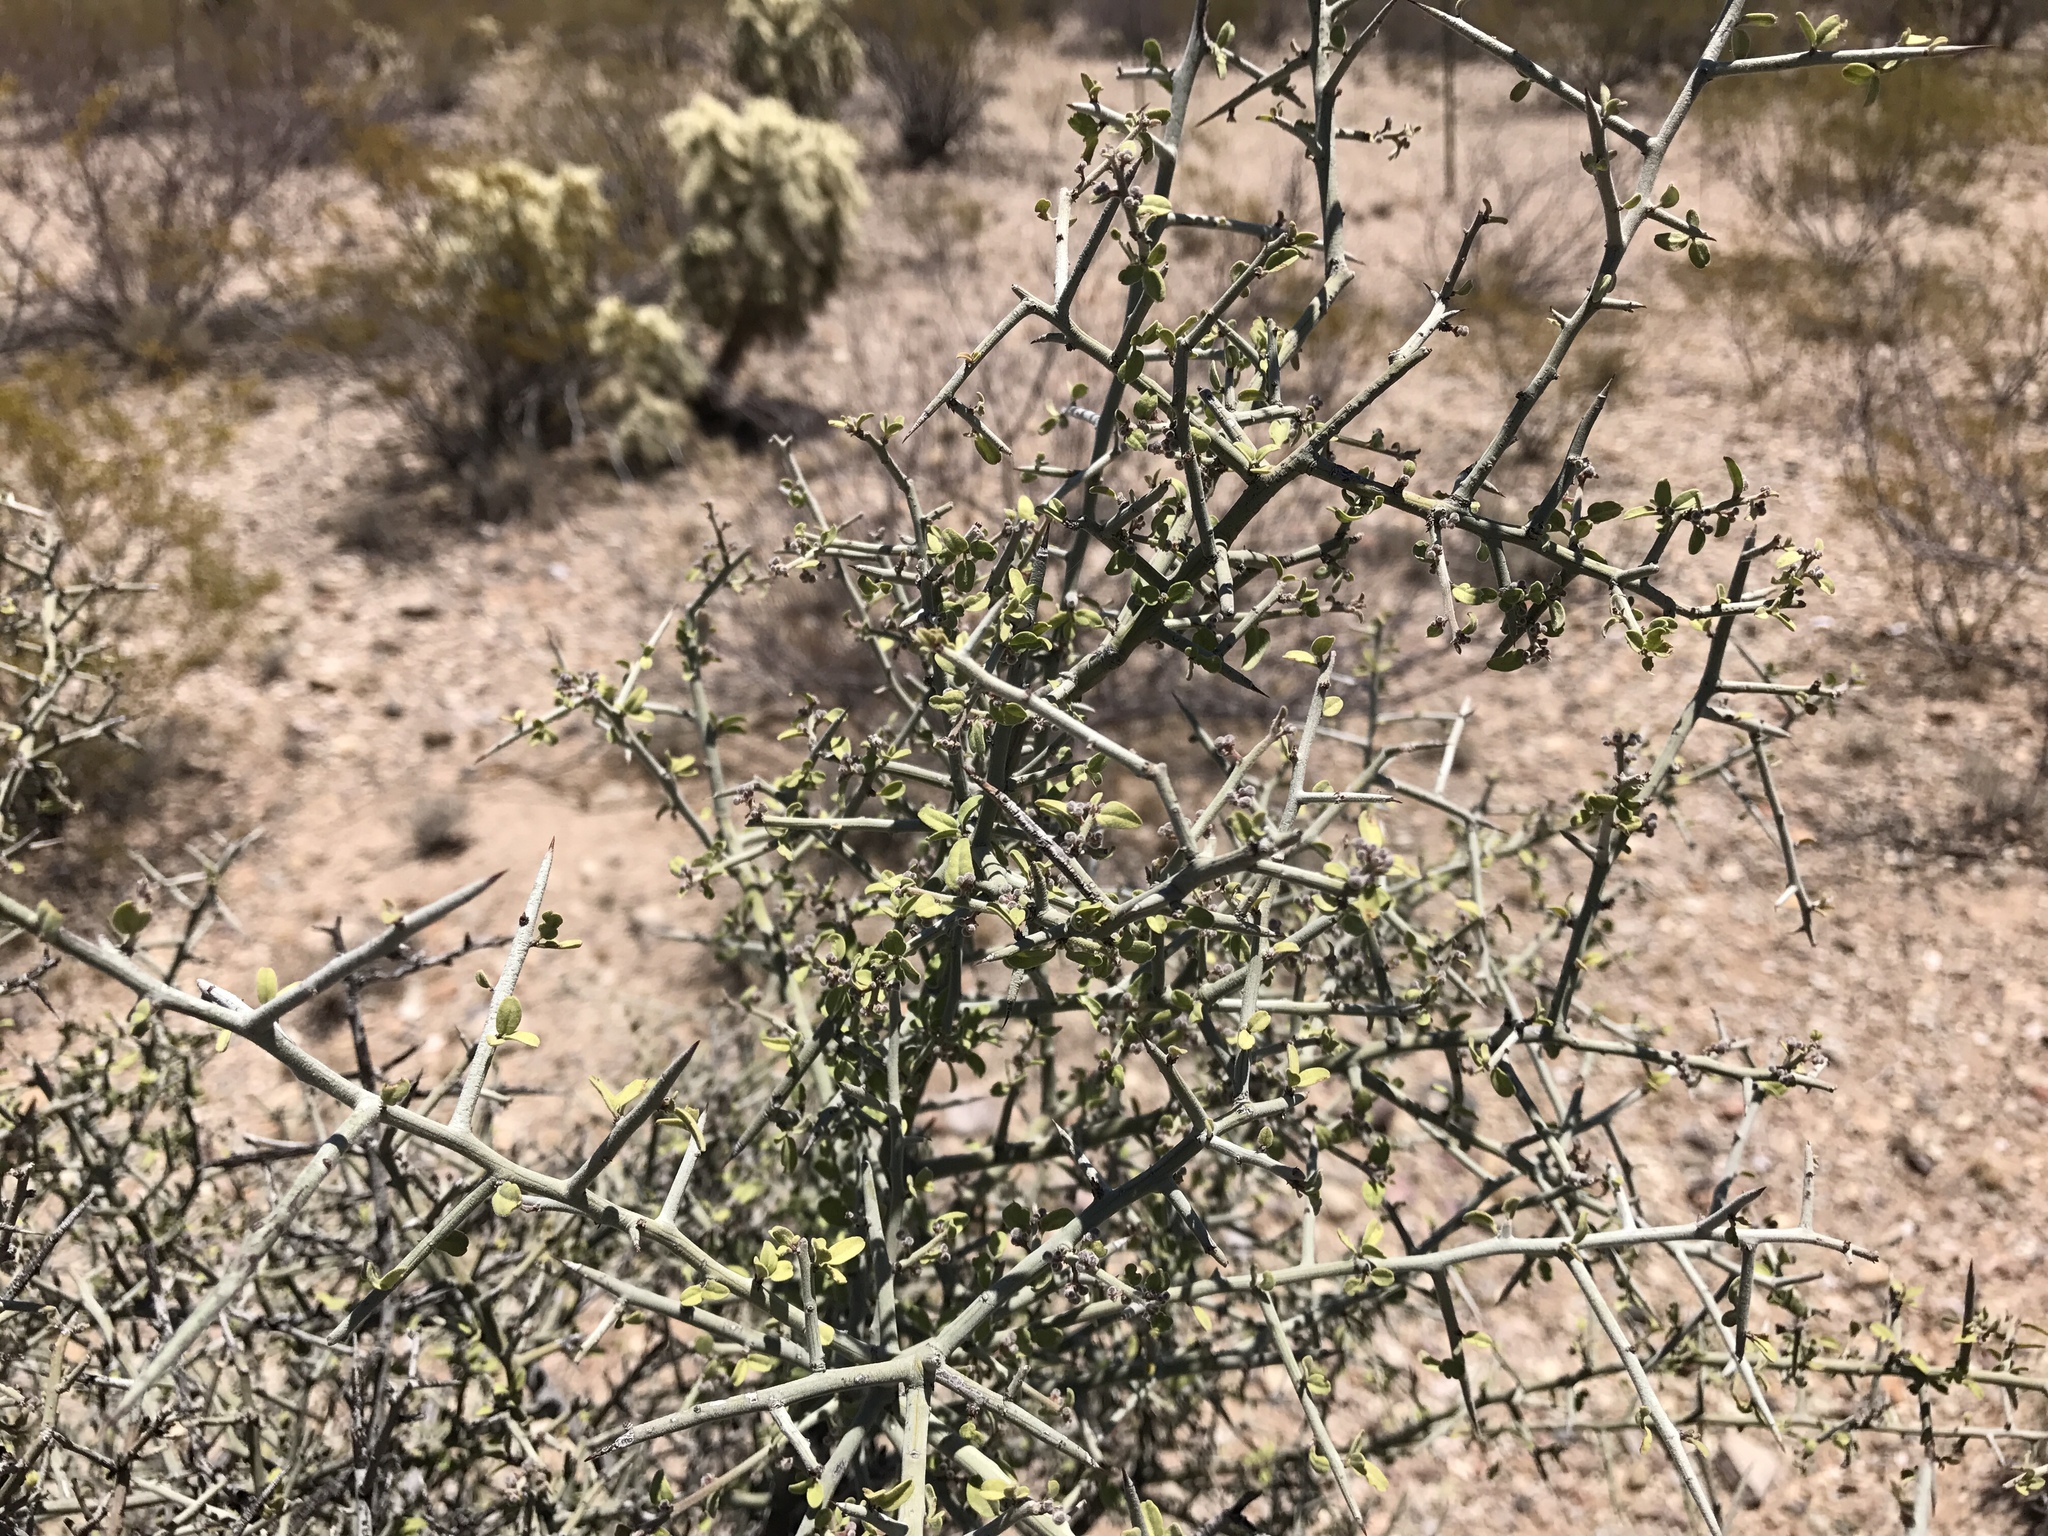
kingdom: Plantae
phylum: Tracheophyta
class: Magnoliopsida
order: Rosales
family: Rhamnaceae
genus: Sarcomphalus
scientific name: Sarcomphalus obtusifolius
